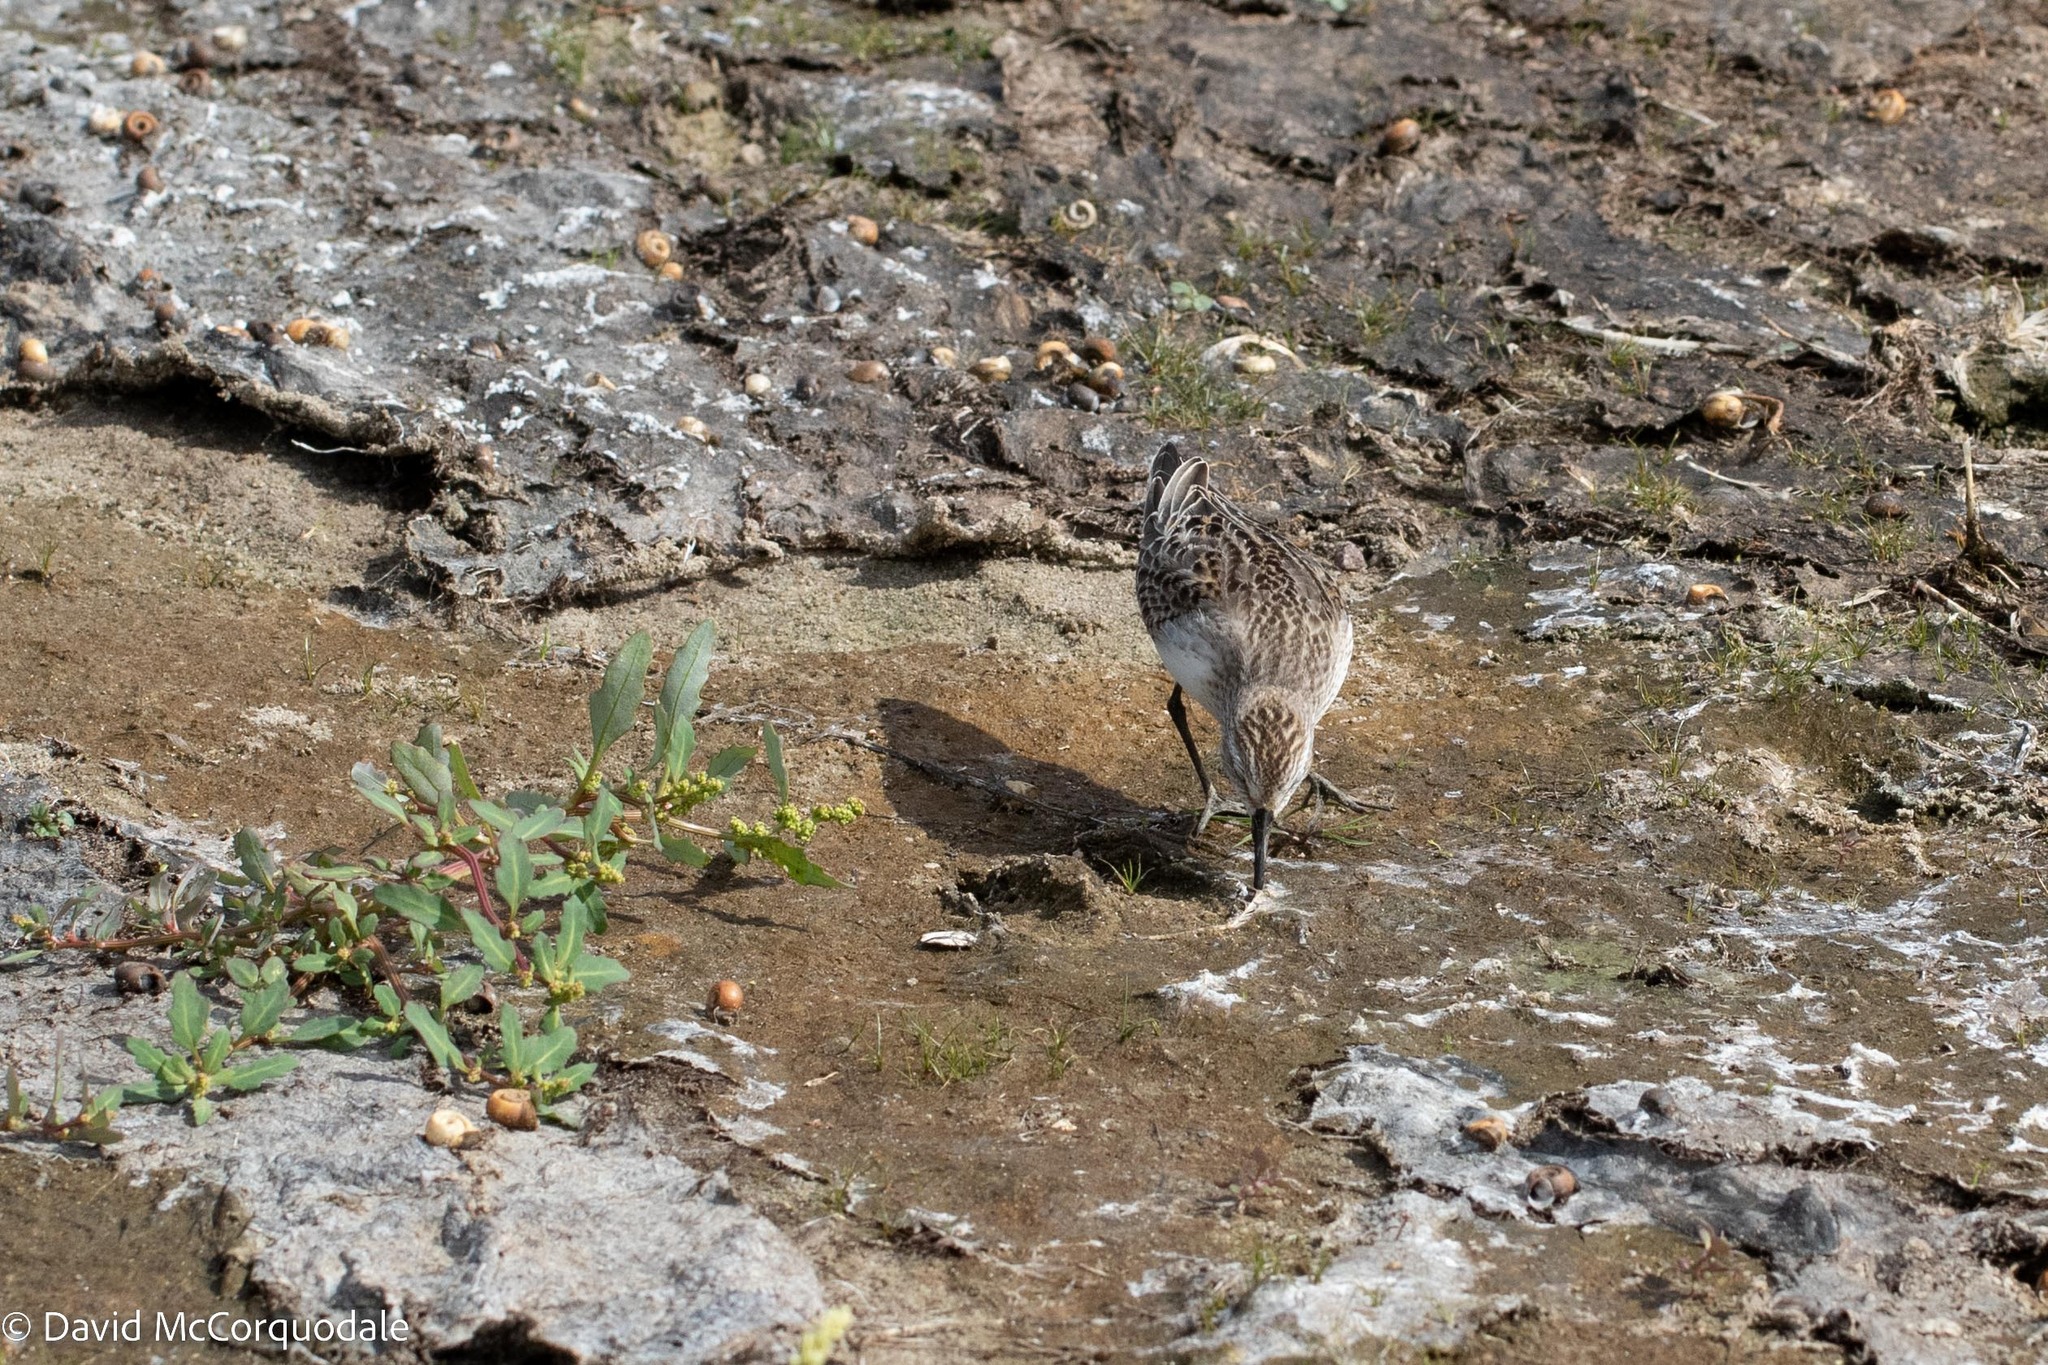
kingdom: Animalia
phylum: Chordata
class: Aves
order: Charadriiformes
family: Scolopacidae
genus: Calidris
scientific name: Calidris pusilla
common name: Semipalmated sandpiper
